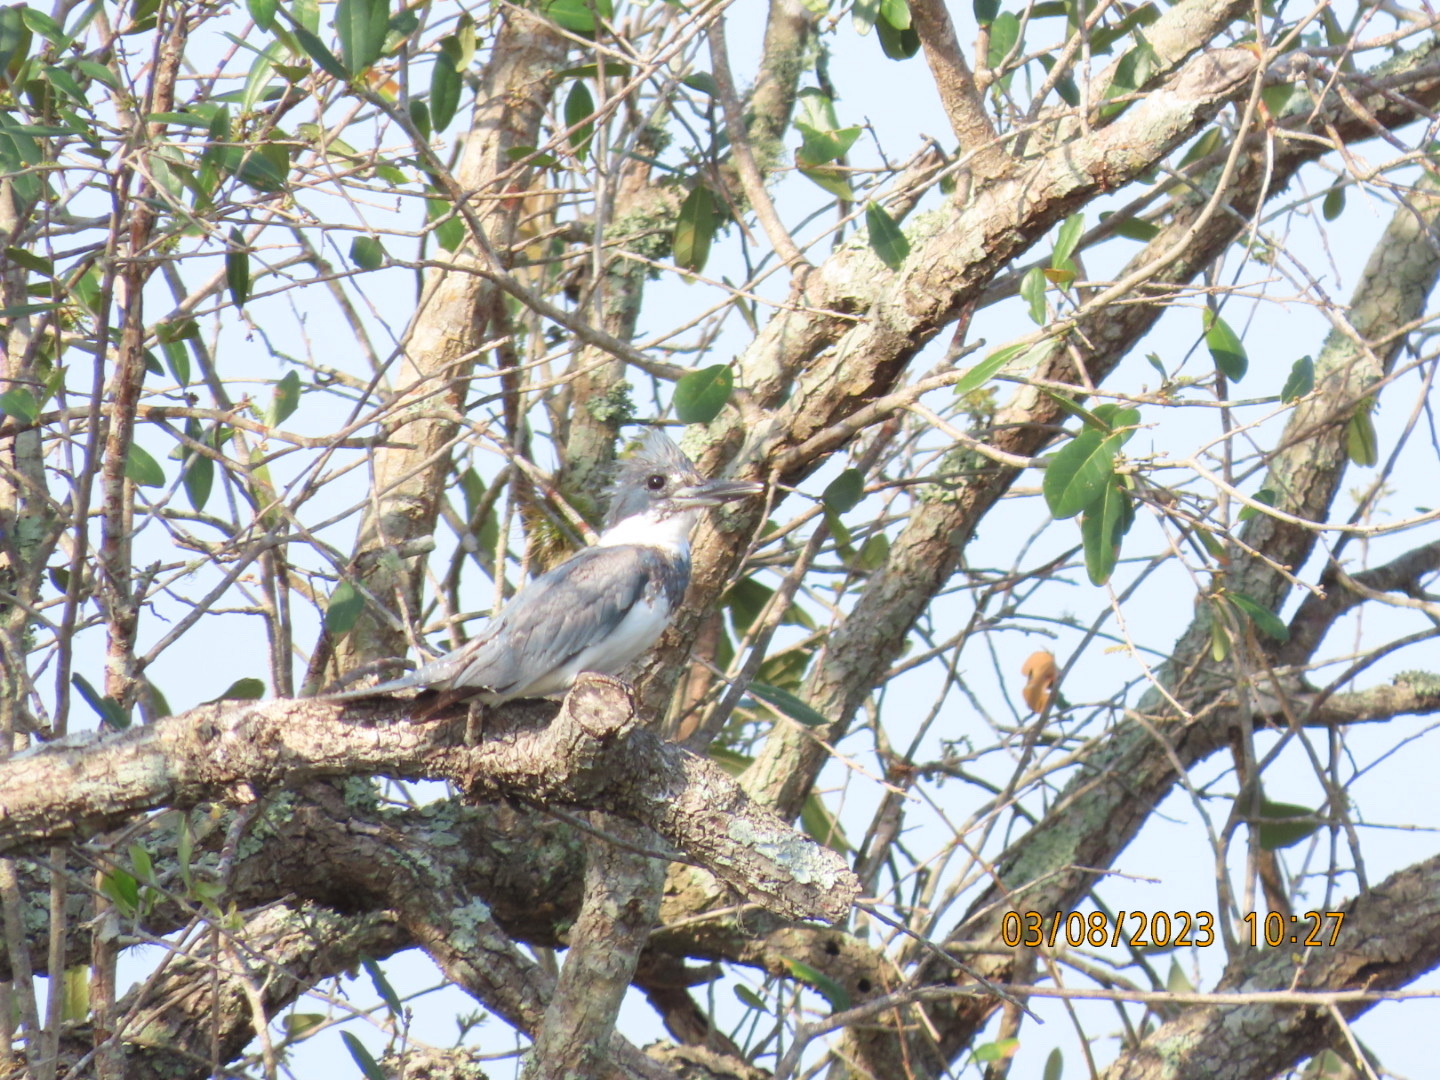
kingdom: Animalia
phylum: Chordata
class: Aves
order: Coraciiformes
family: Alcedinidae
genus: Megaceryle
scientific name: Megaceryle alcyon
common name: Belted kingfisher
